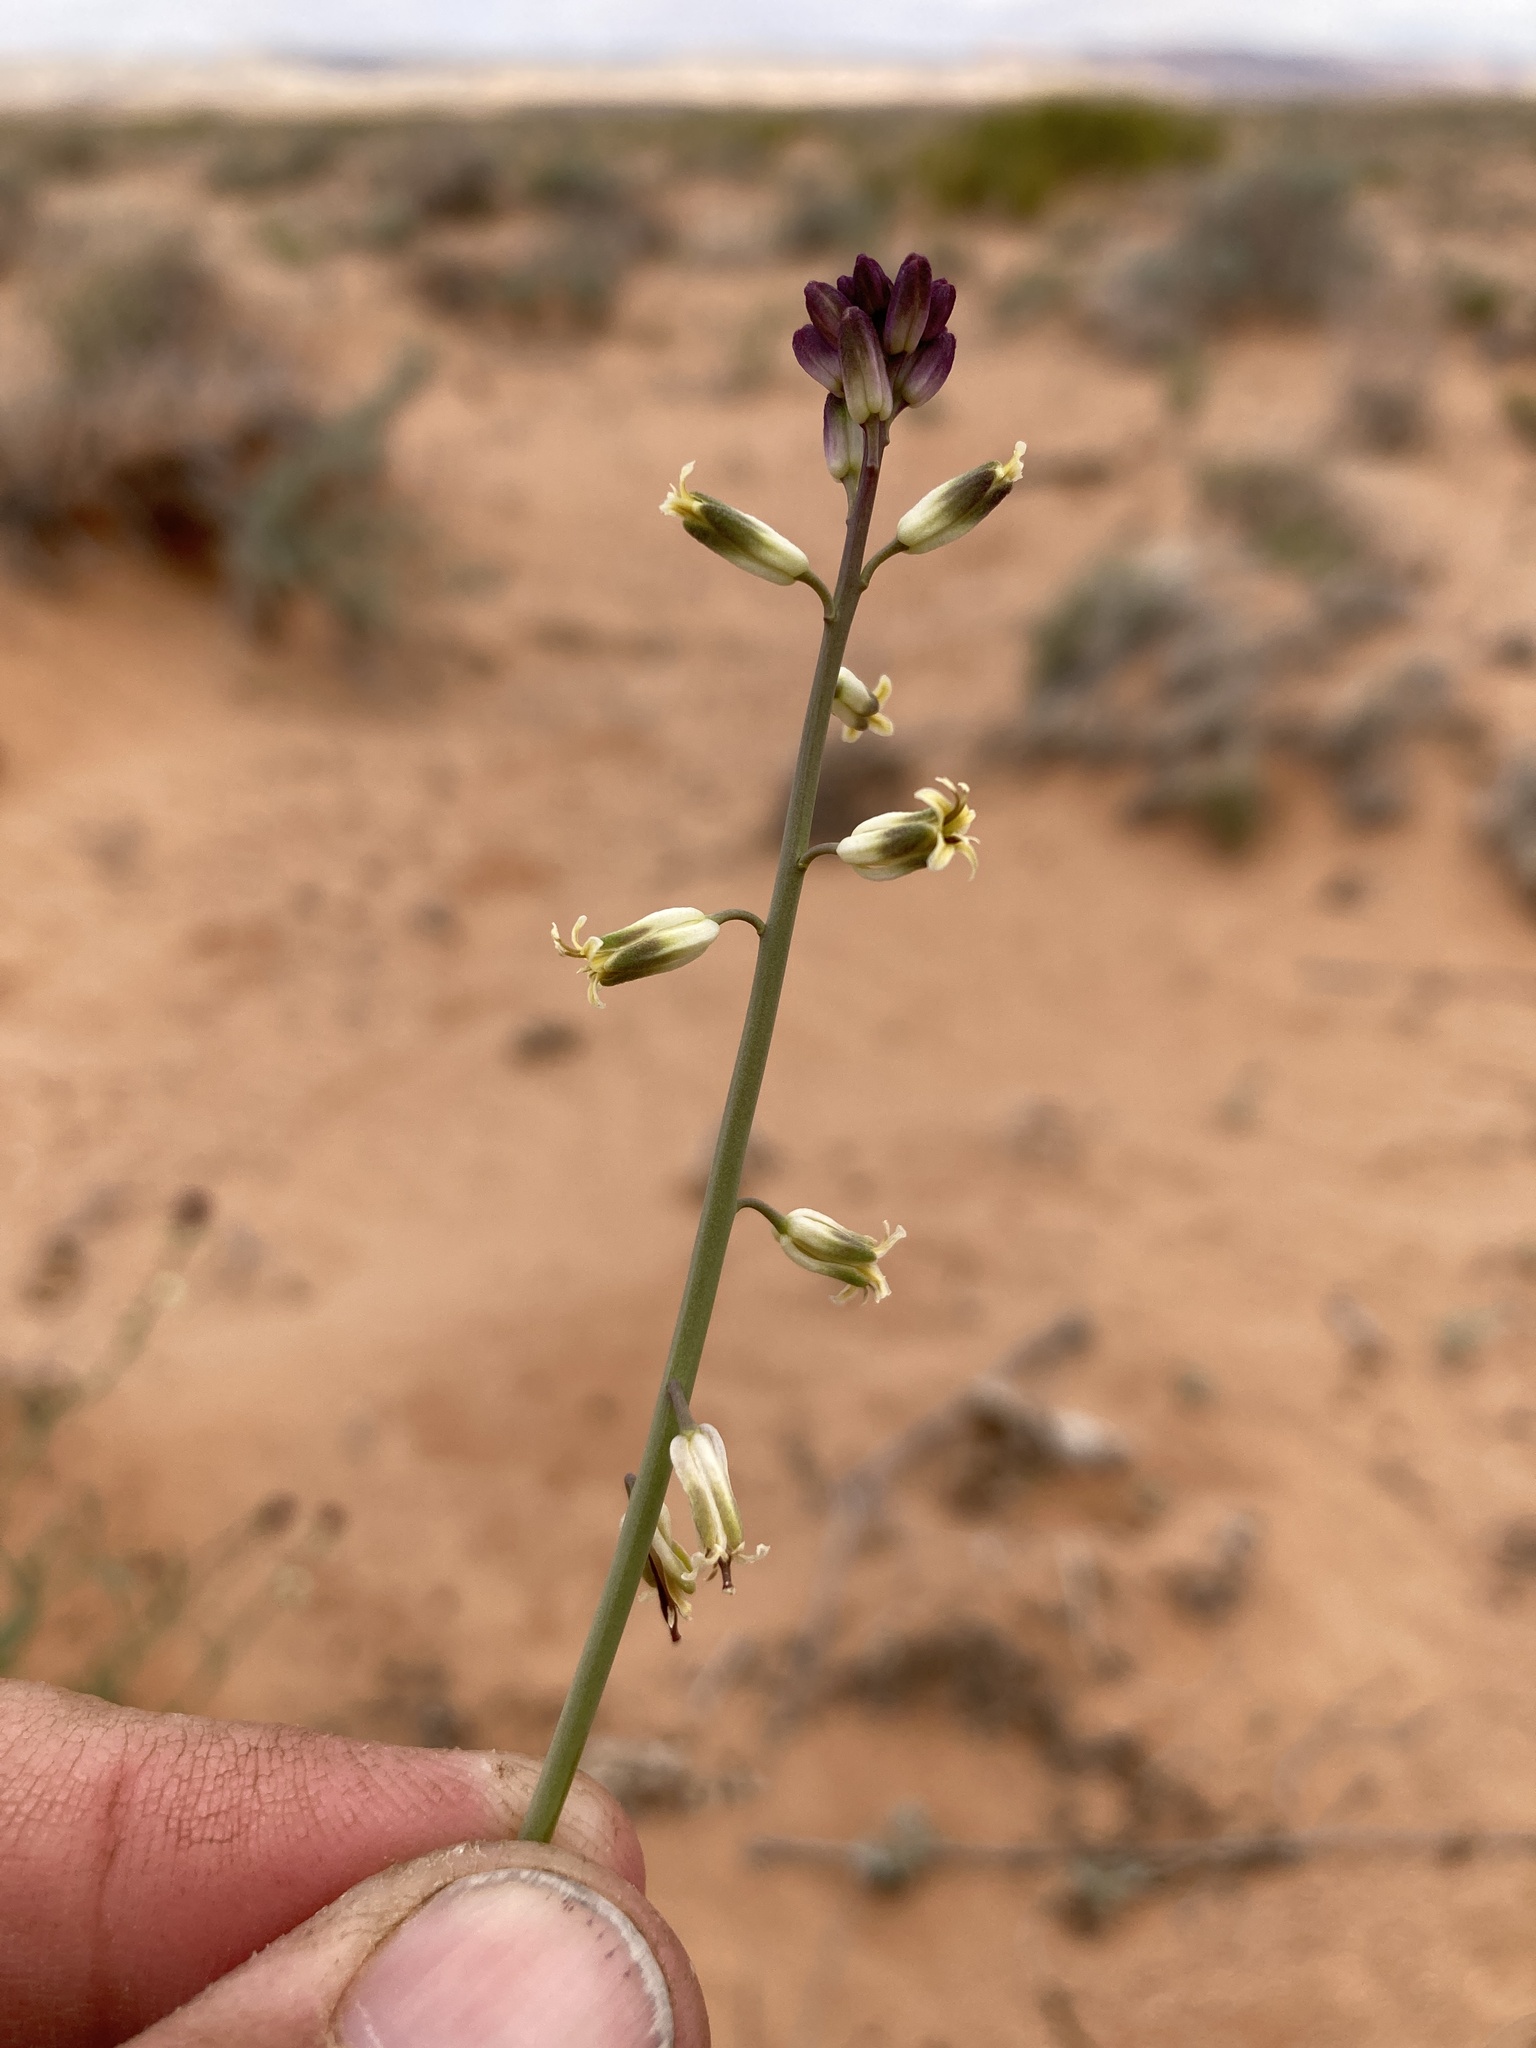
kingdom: Plantae
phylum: Tracheophyta
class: Magnoliopsida
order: Brassicales
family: Brassicaceae
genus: Streptanthus
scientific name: Streptanthus longirostris
